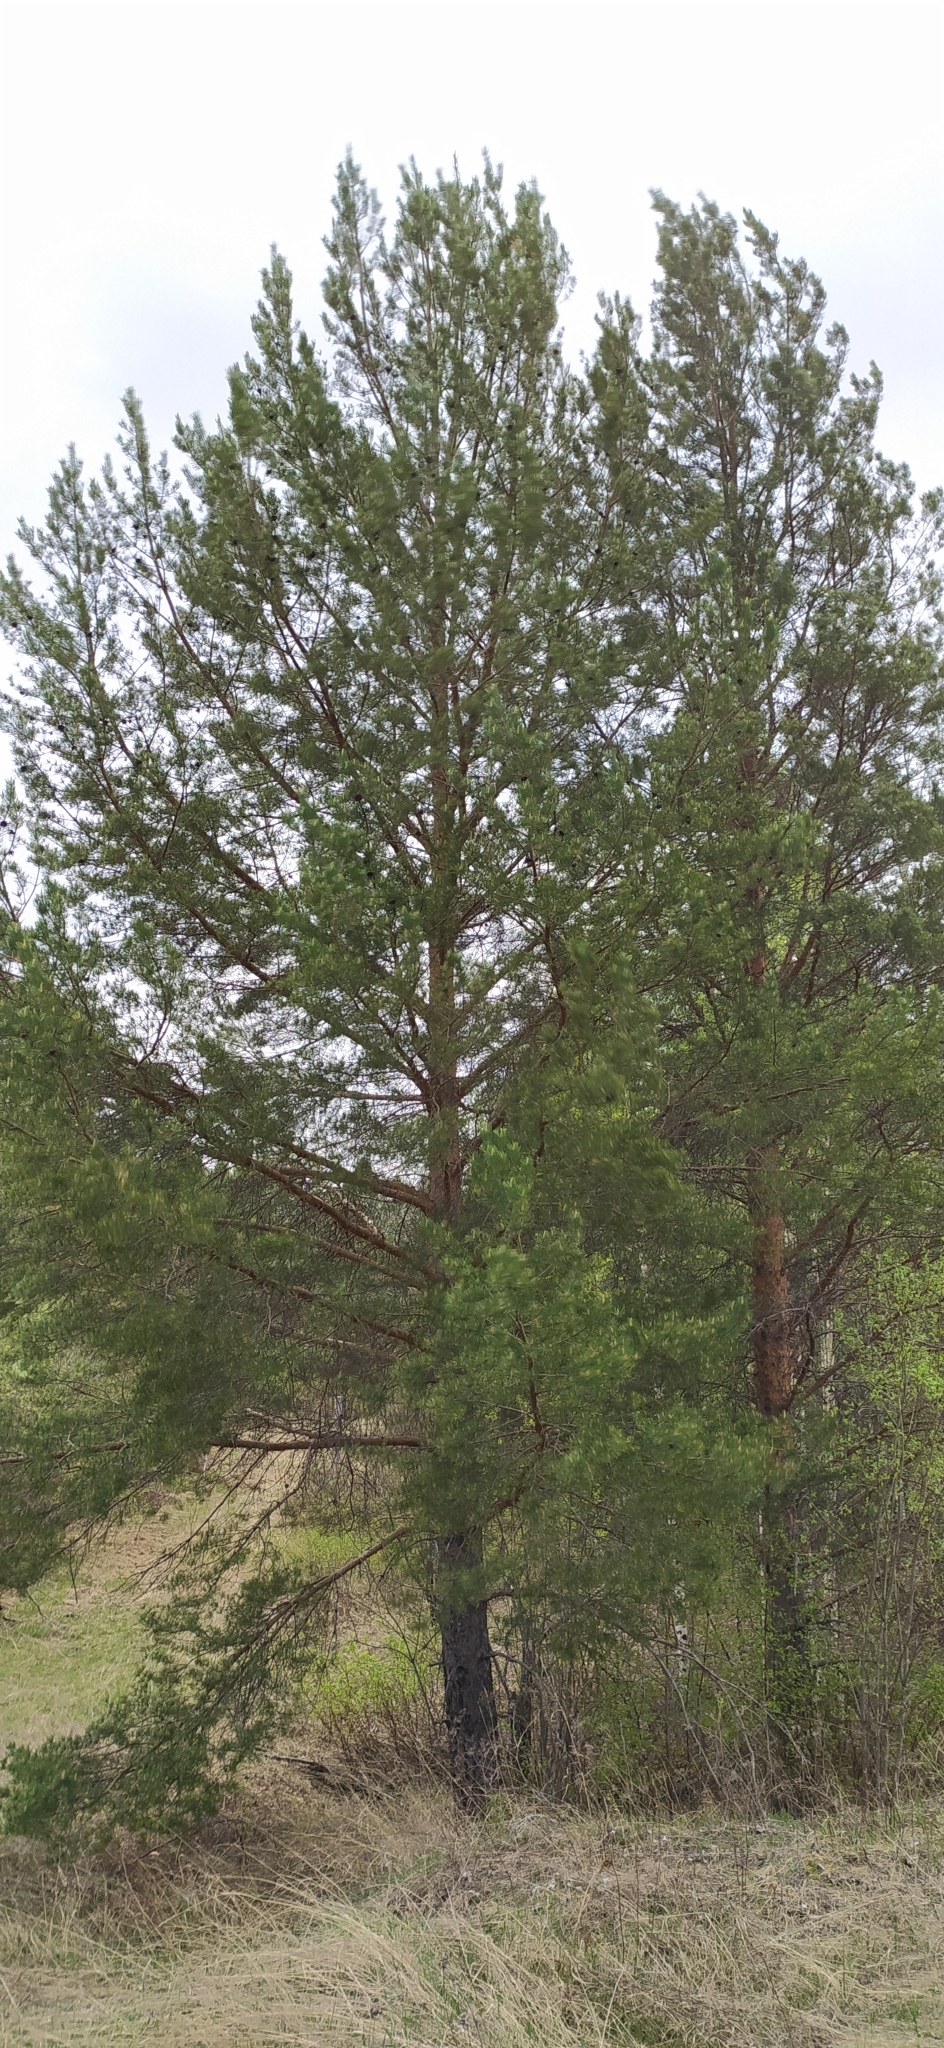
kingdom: Plantae
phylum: Tracheophyta
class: Pinopsida
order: Pinales
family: Pinaceae
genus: Pinus
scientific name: Pinus sylvestris
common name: Scots pine
